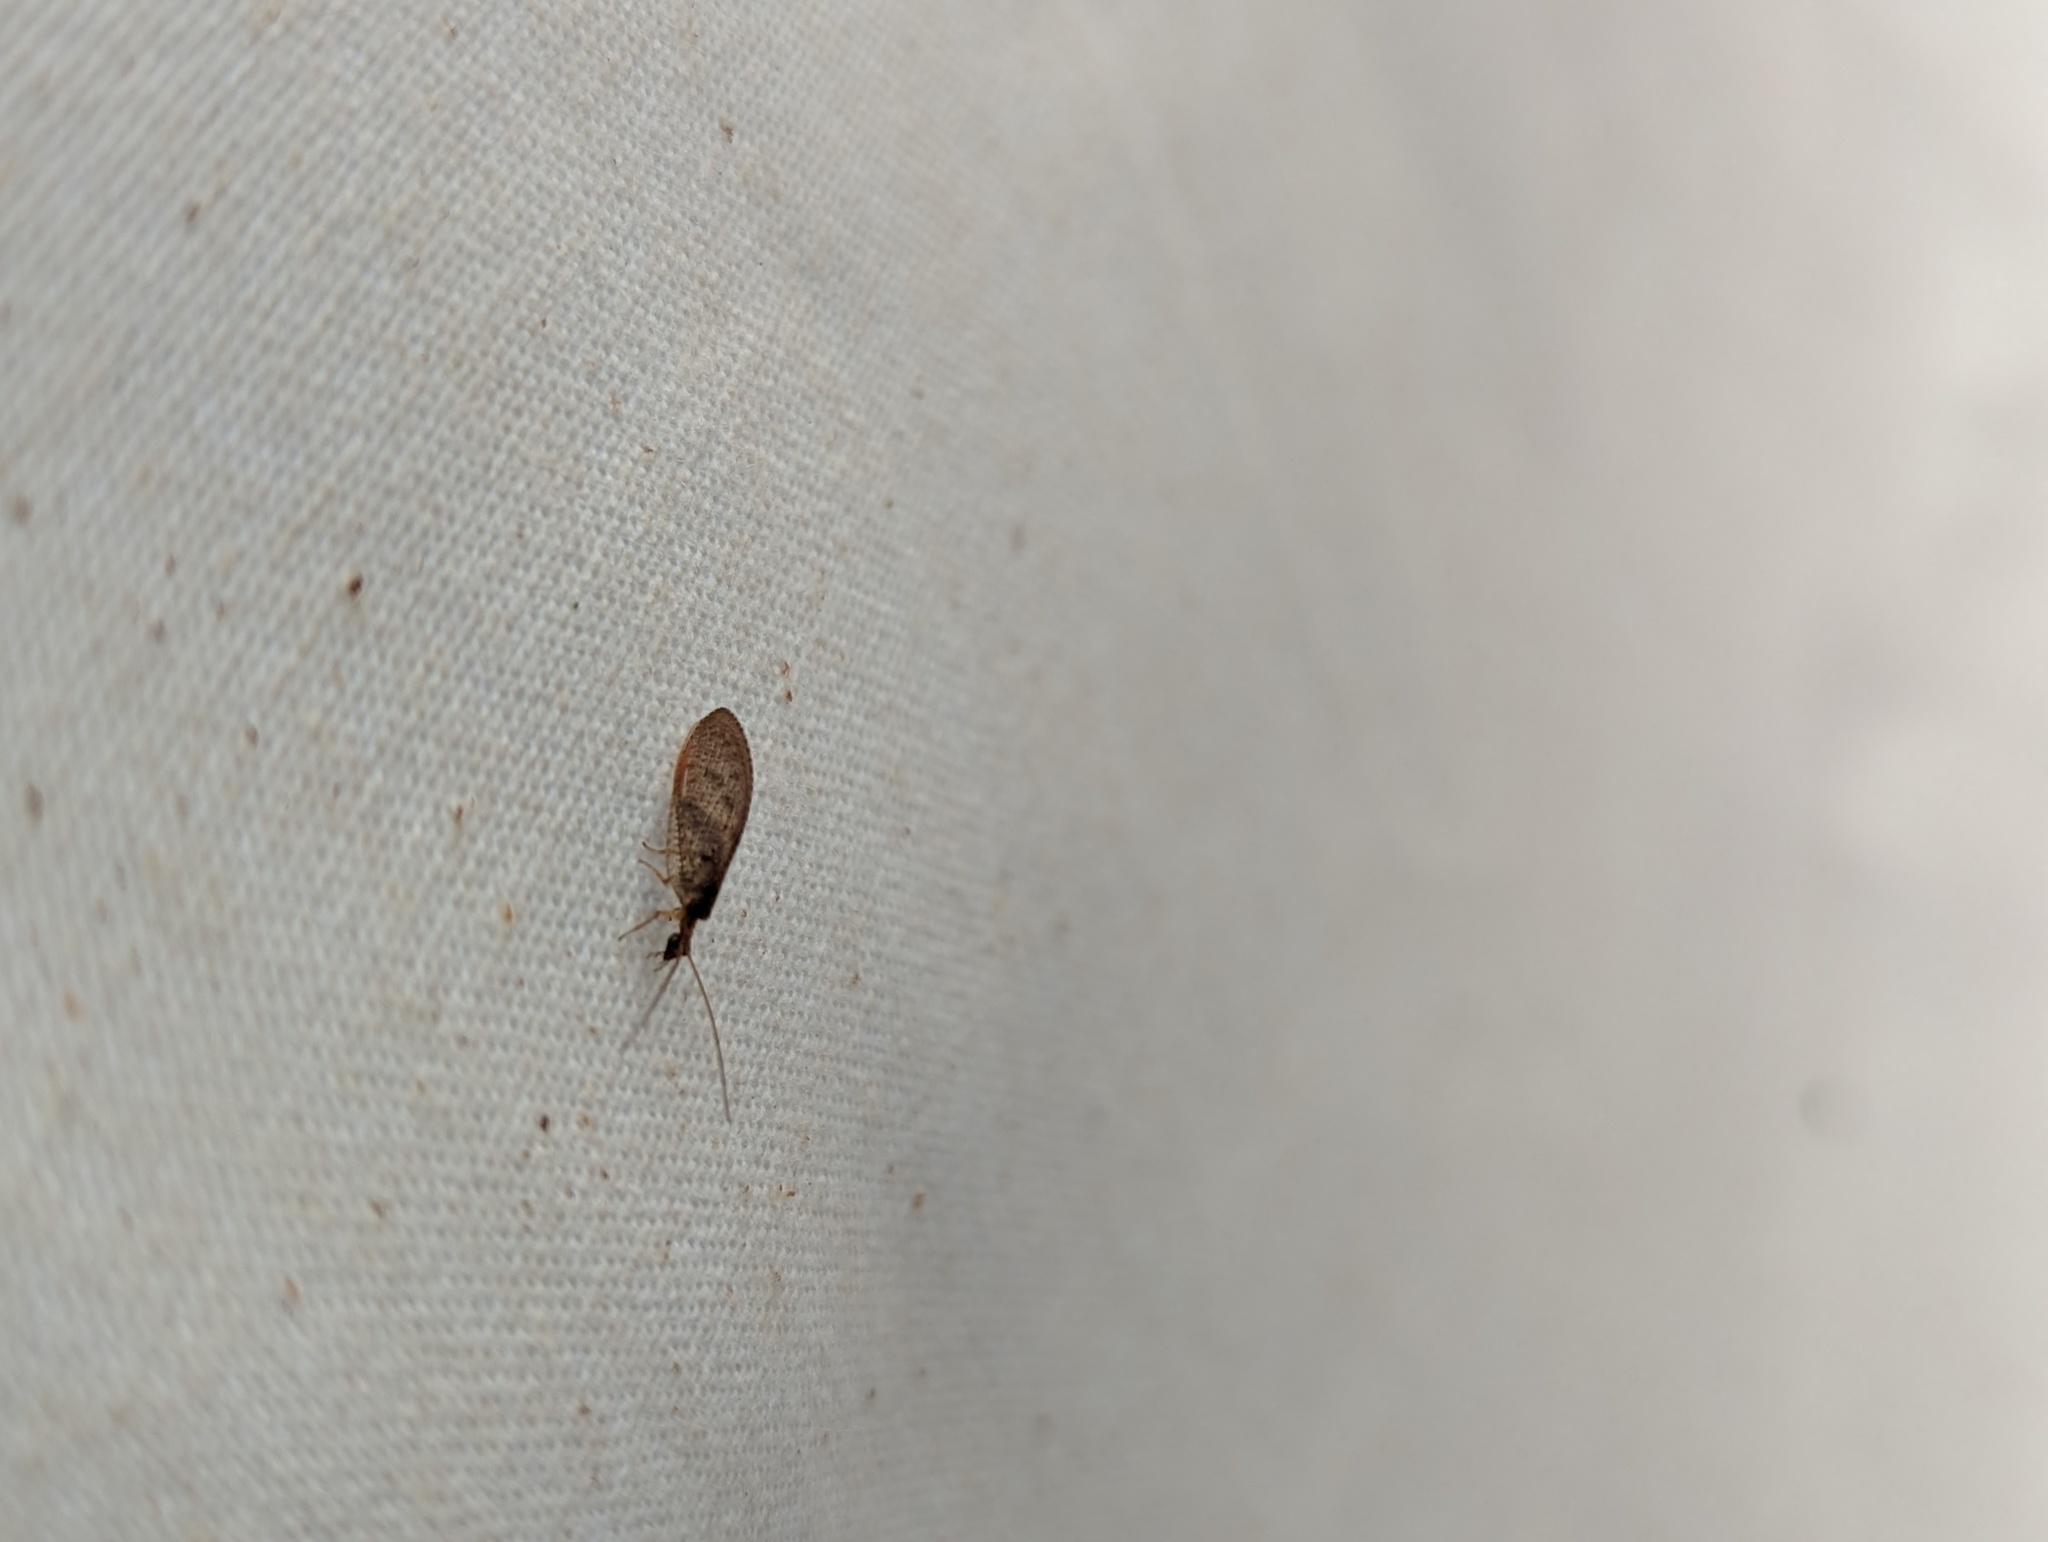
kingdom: Animalia
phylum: Arthropoda
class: Insecta
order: Neuroptera
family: Hemerobiidae
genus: Hemerobius
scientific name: Hemerobius stigma
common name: Brown pine lacewing
